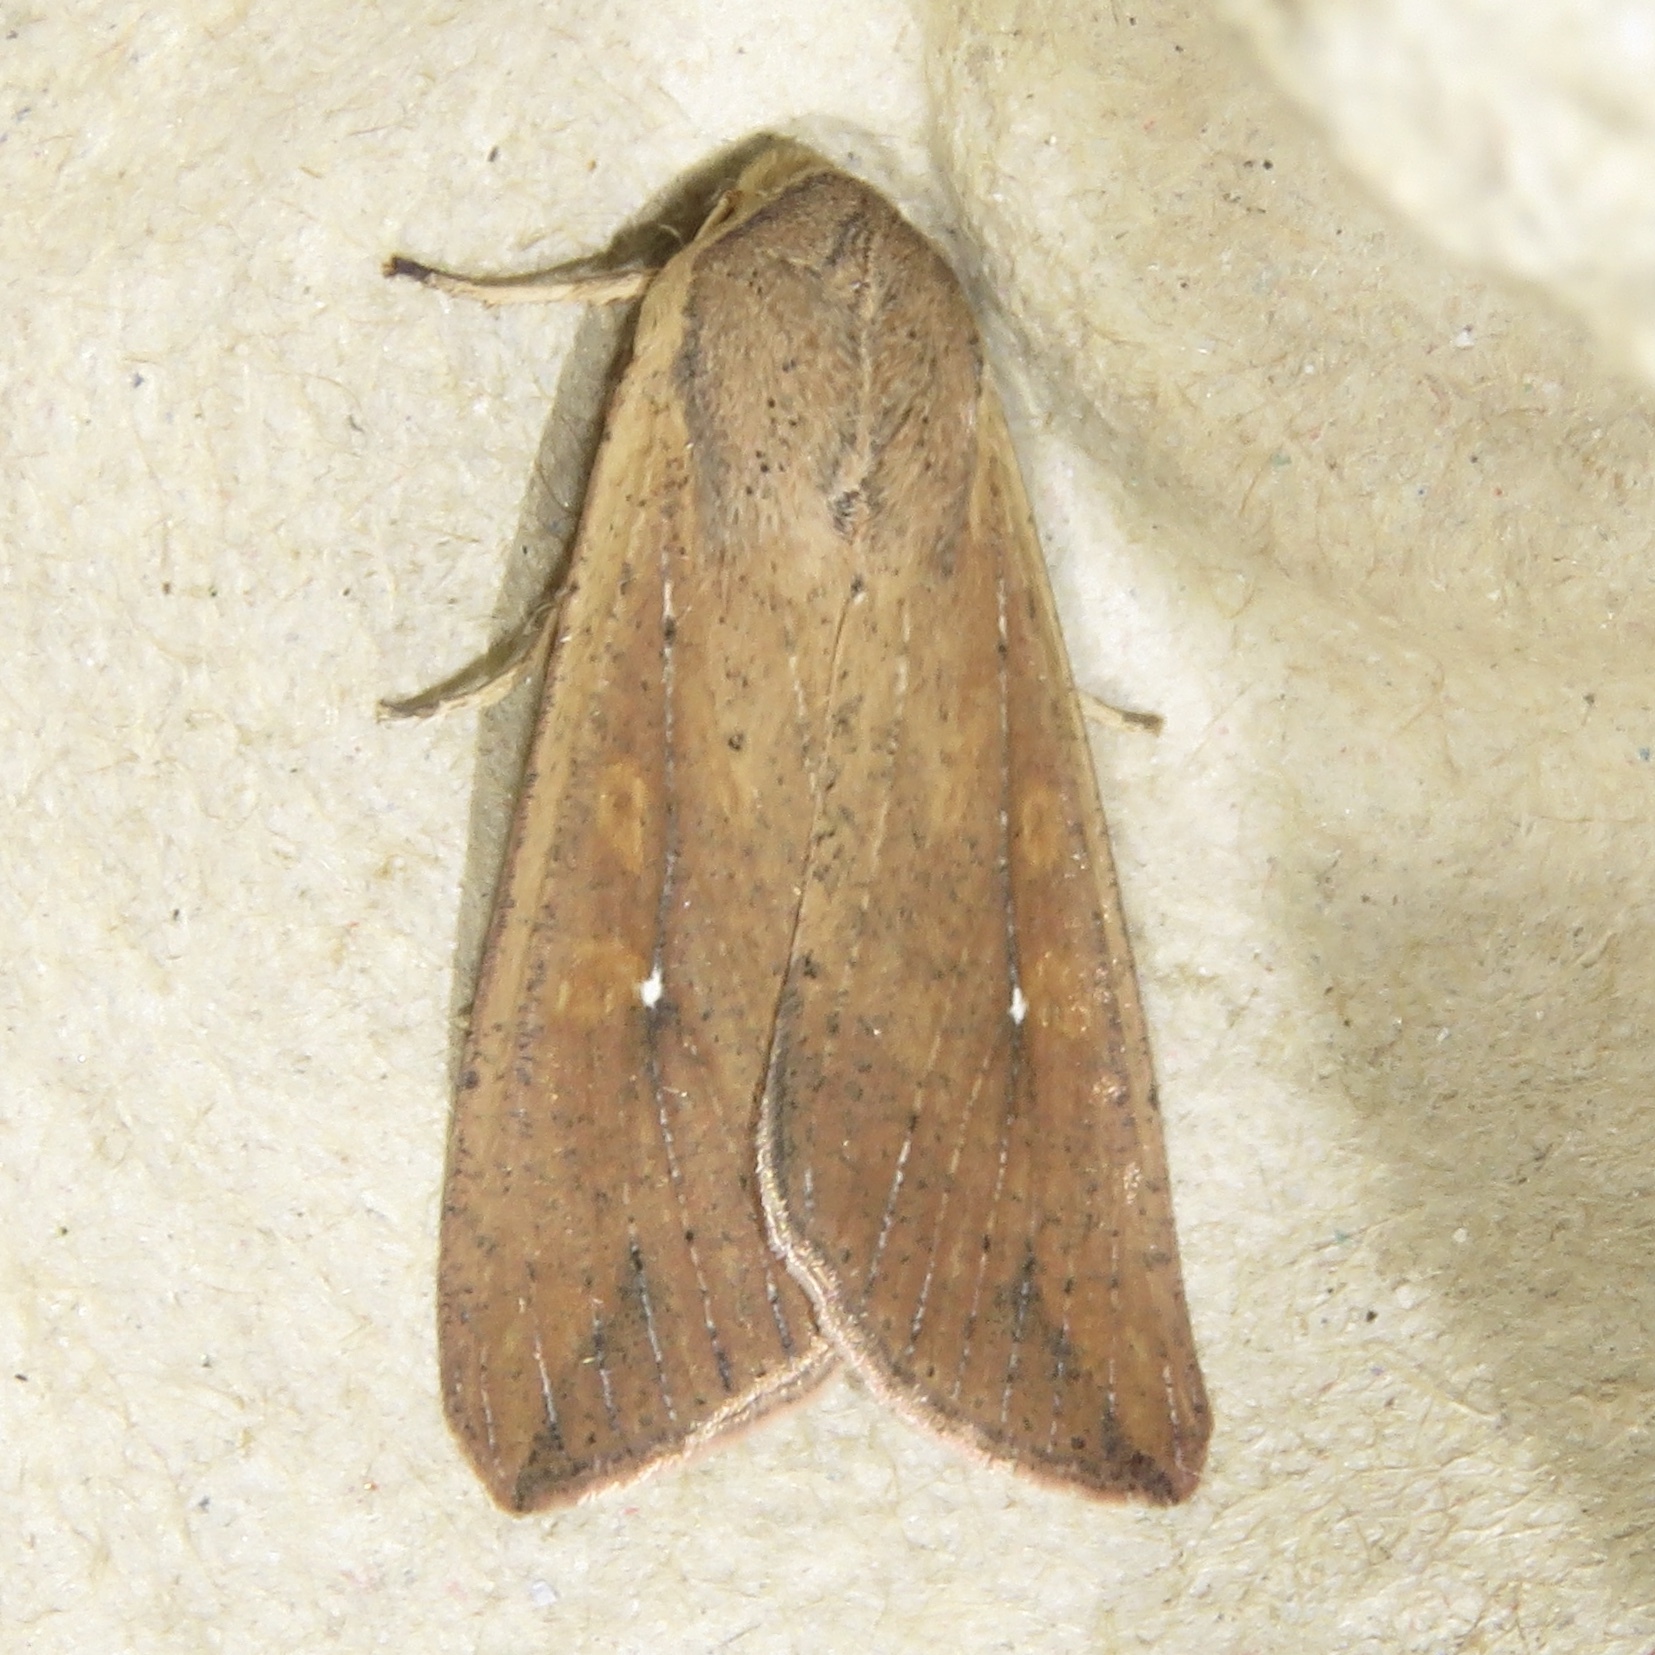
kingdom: Animalia
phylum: Arthropoda
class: Insecta
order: Lepidoptera
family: Noctuidae
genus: Mythimna
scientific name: Mythimna unipuncta
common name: White-speck
